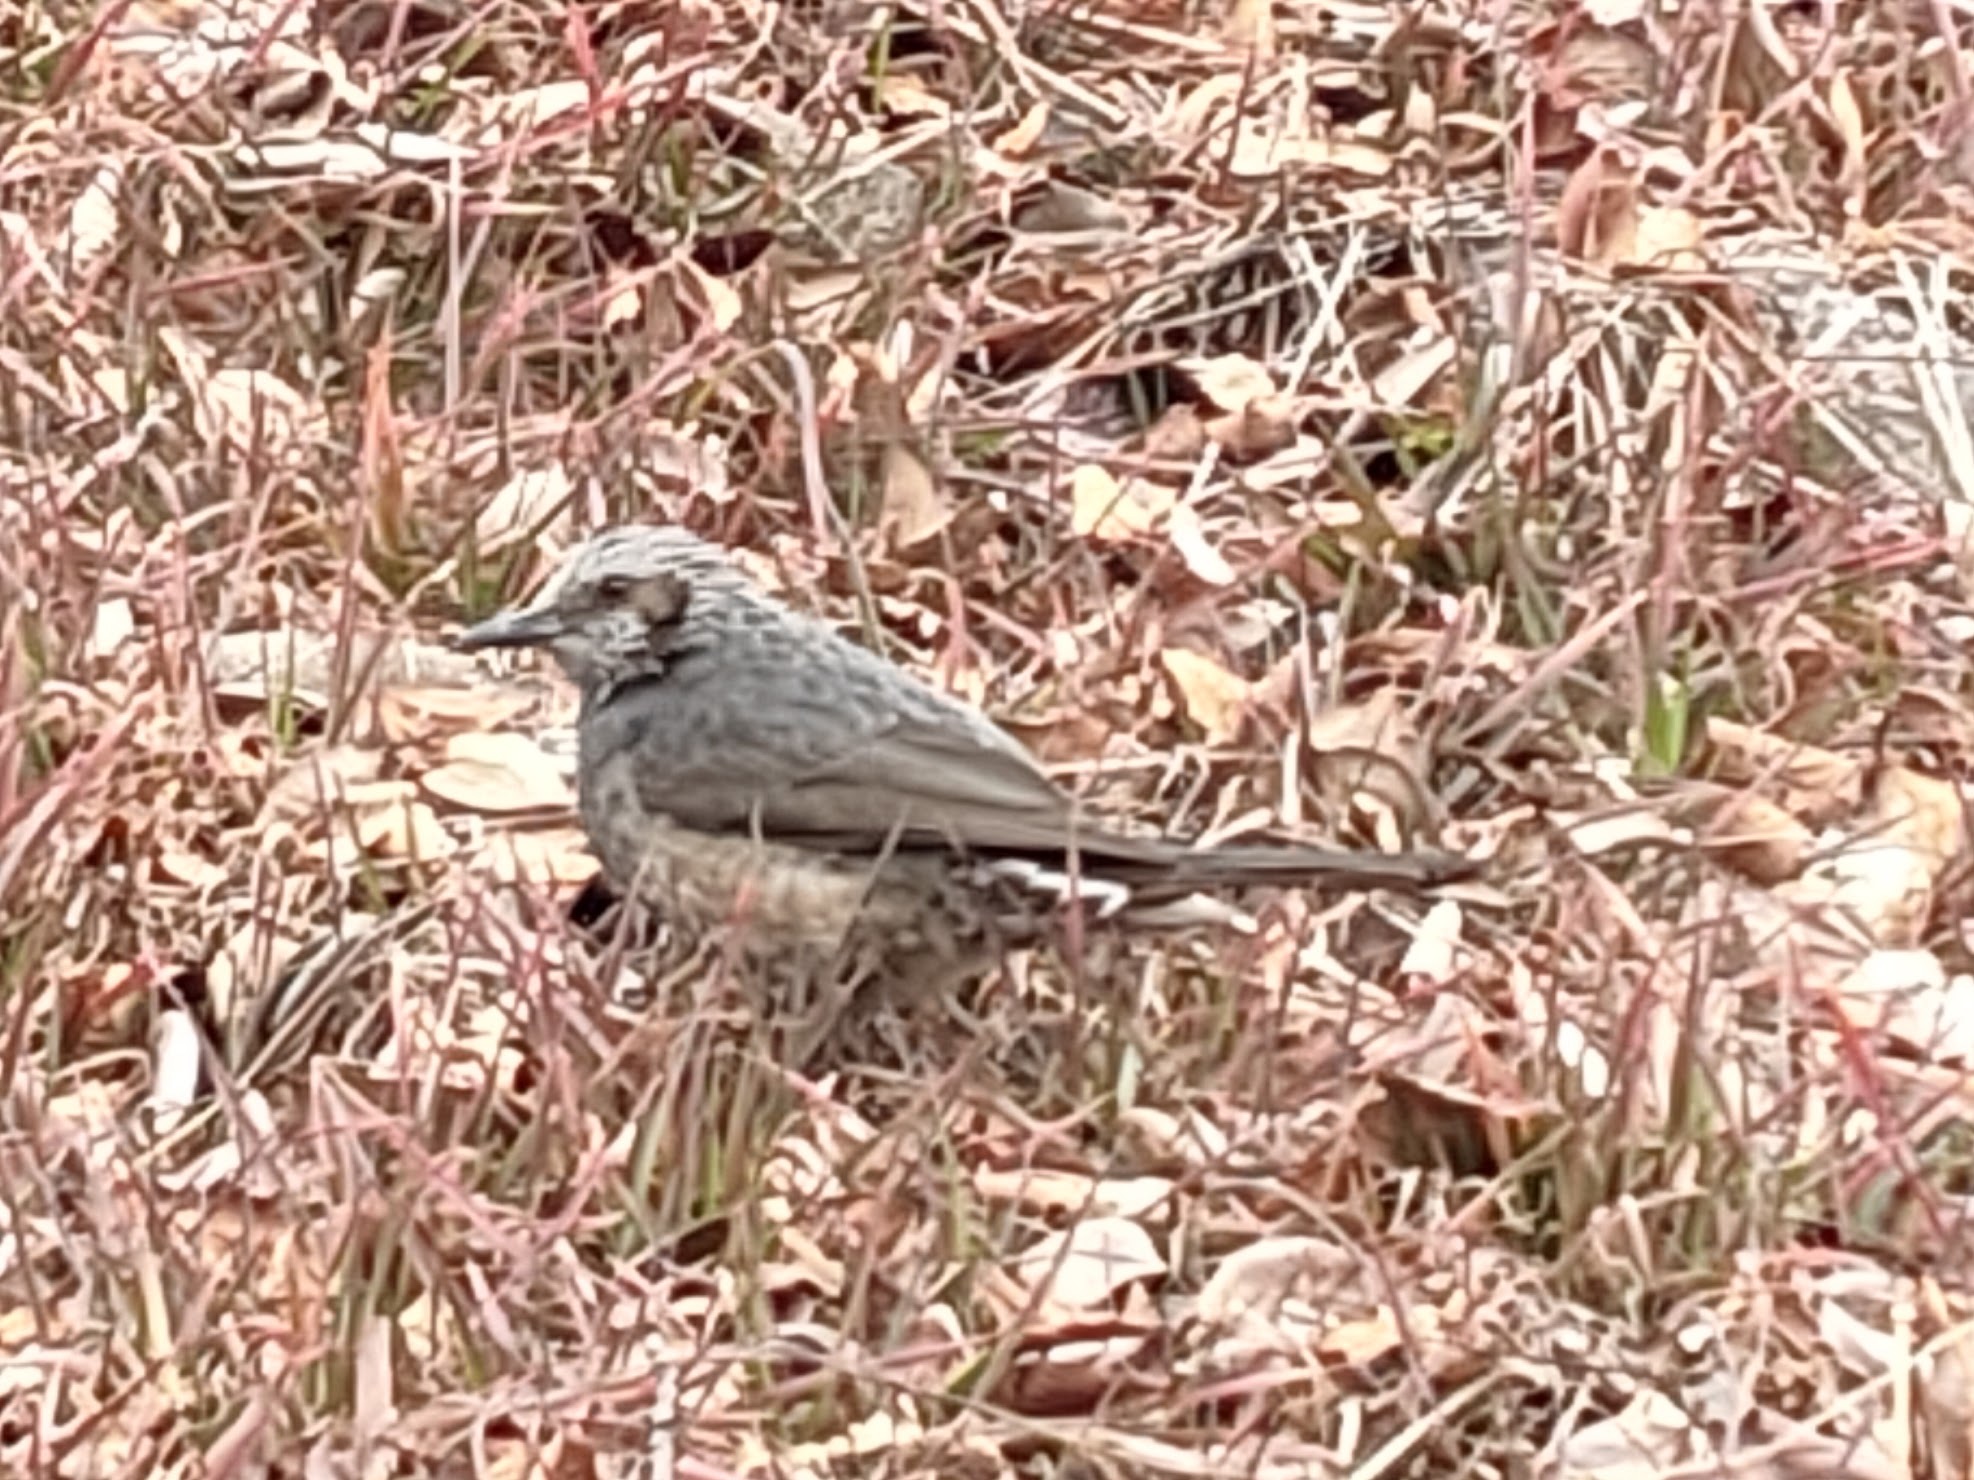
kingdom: Animalia
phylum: Chordata
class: Aves
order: Passeriformes
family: Pycnonotidae
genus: Hypsipetes
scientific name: Hypsipetes amaurotis
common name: Brown-eared bulbul
